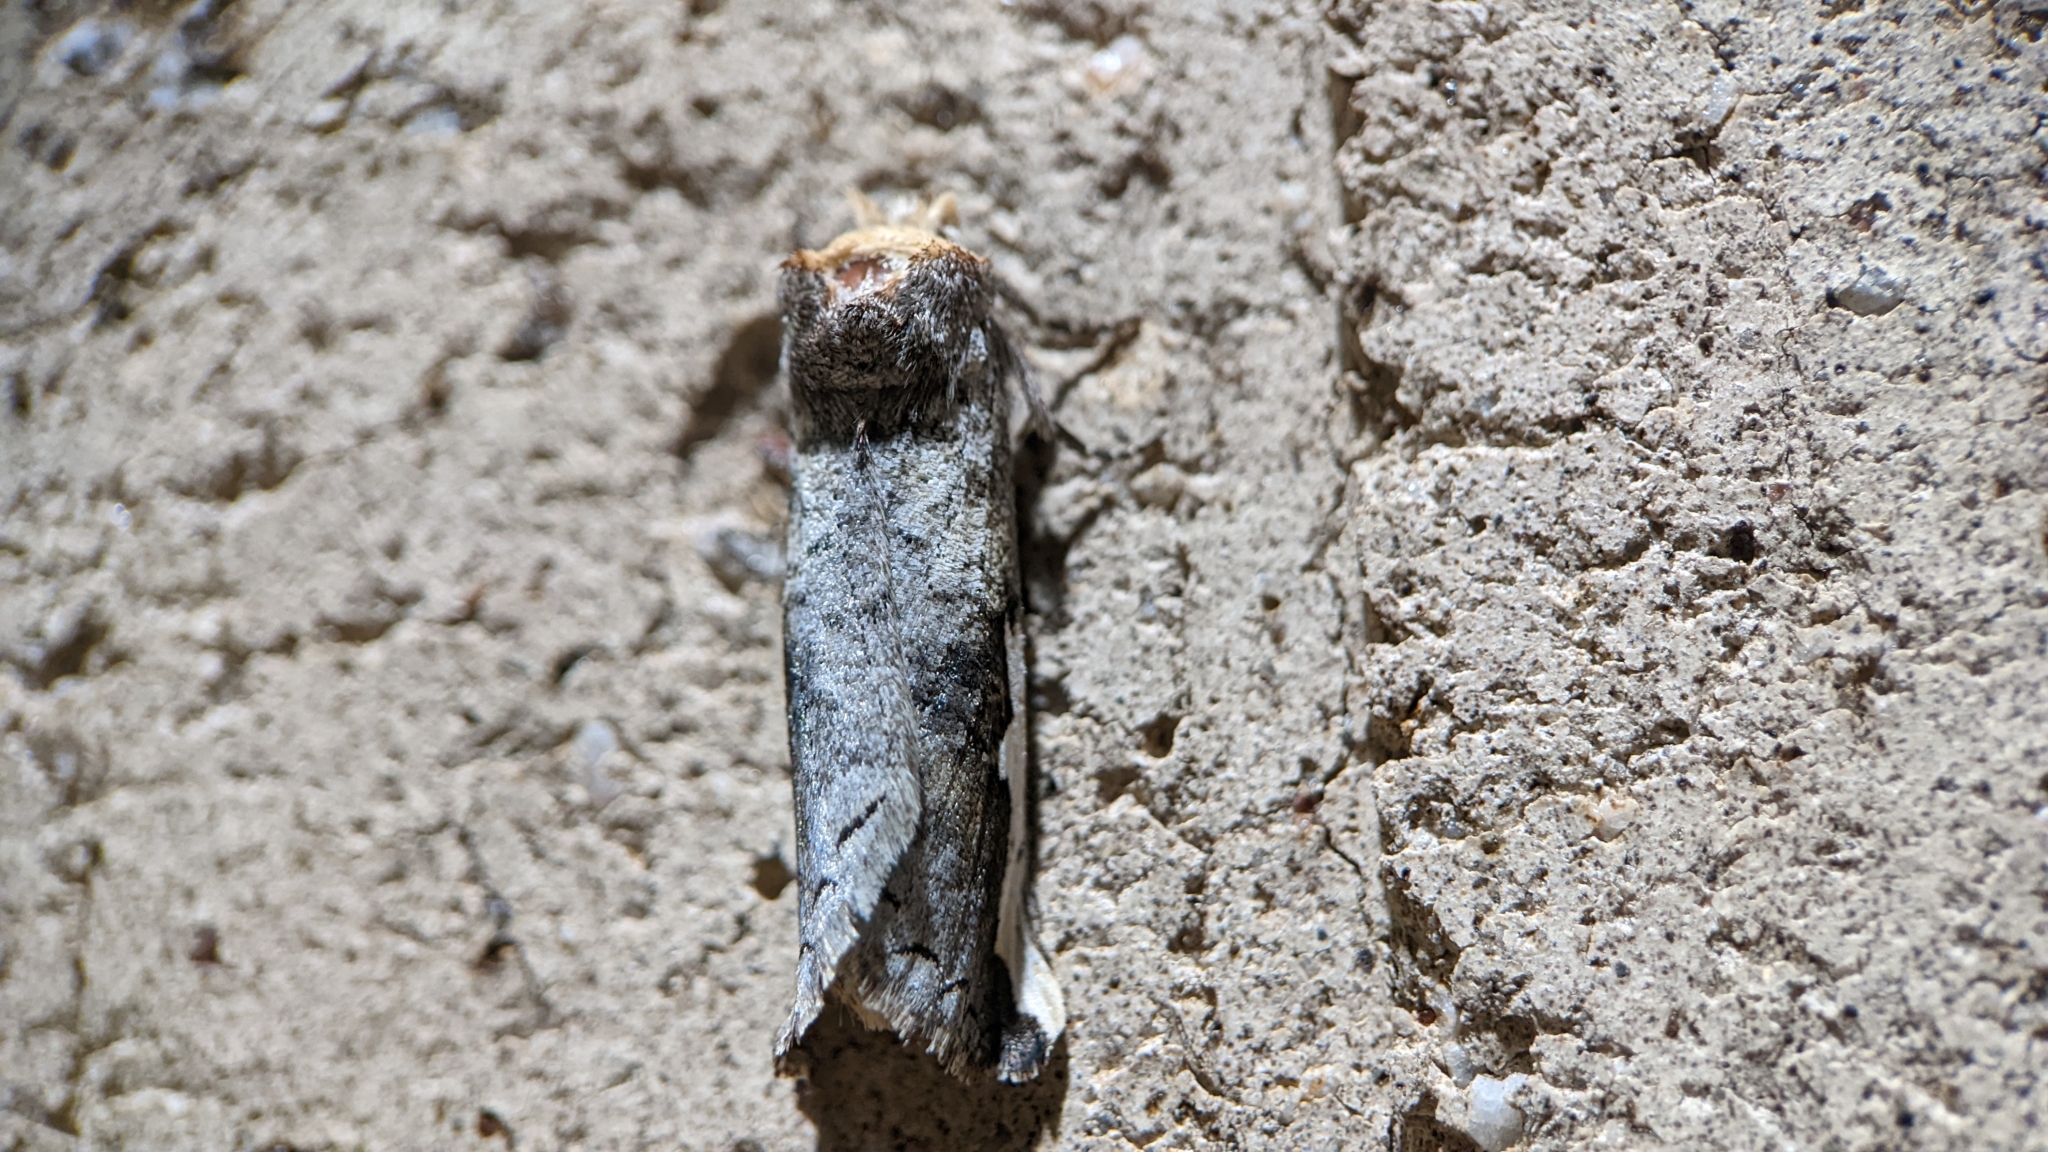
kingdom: Animalia
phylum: Arthropoda
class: Insecta
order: Lepidoptera
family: Notodontidae
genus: Symmerista
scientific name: Symmerista albifrons
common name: White-headed prominent
